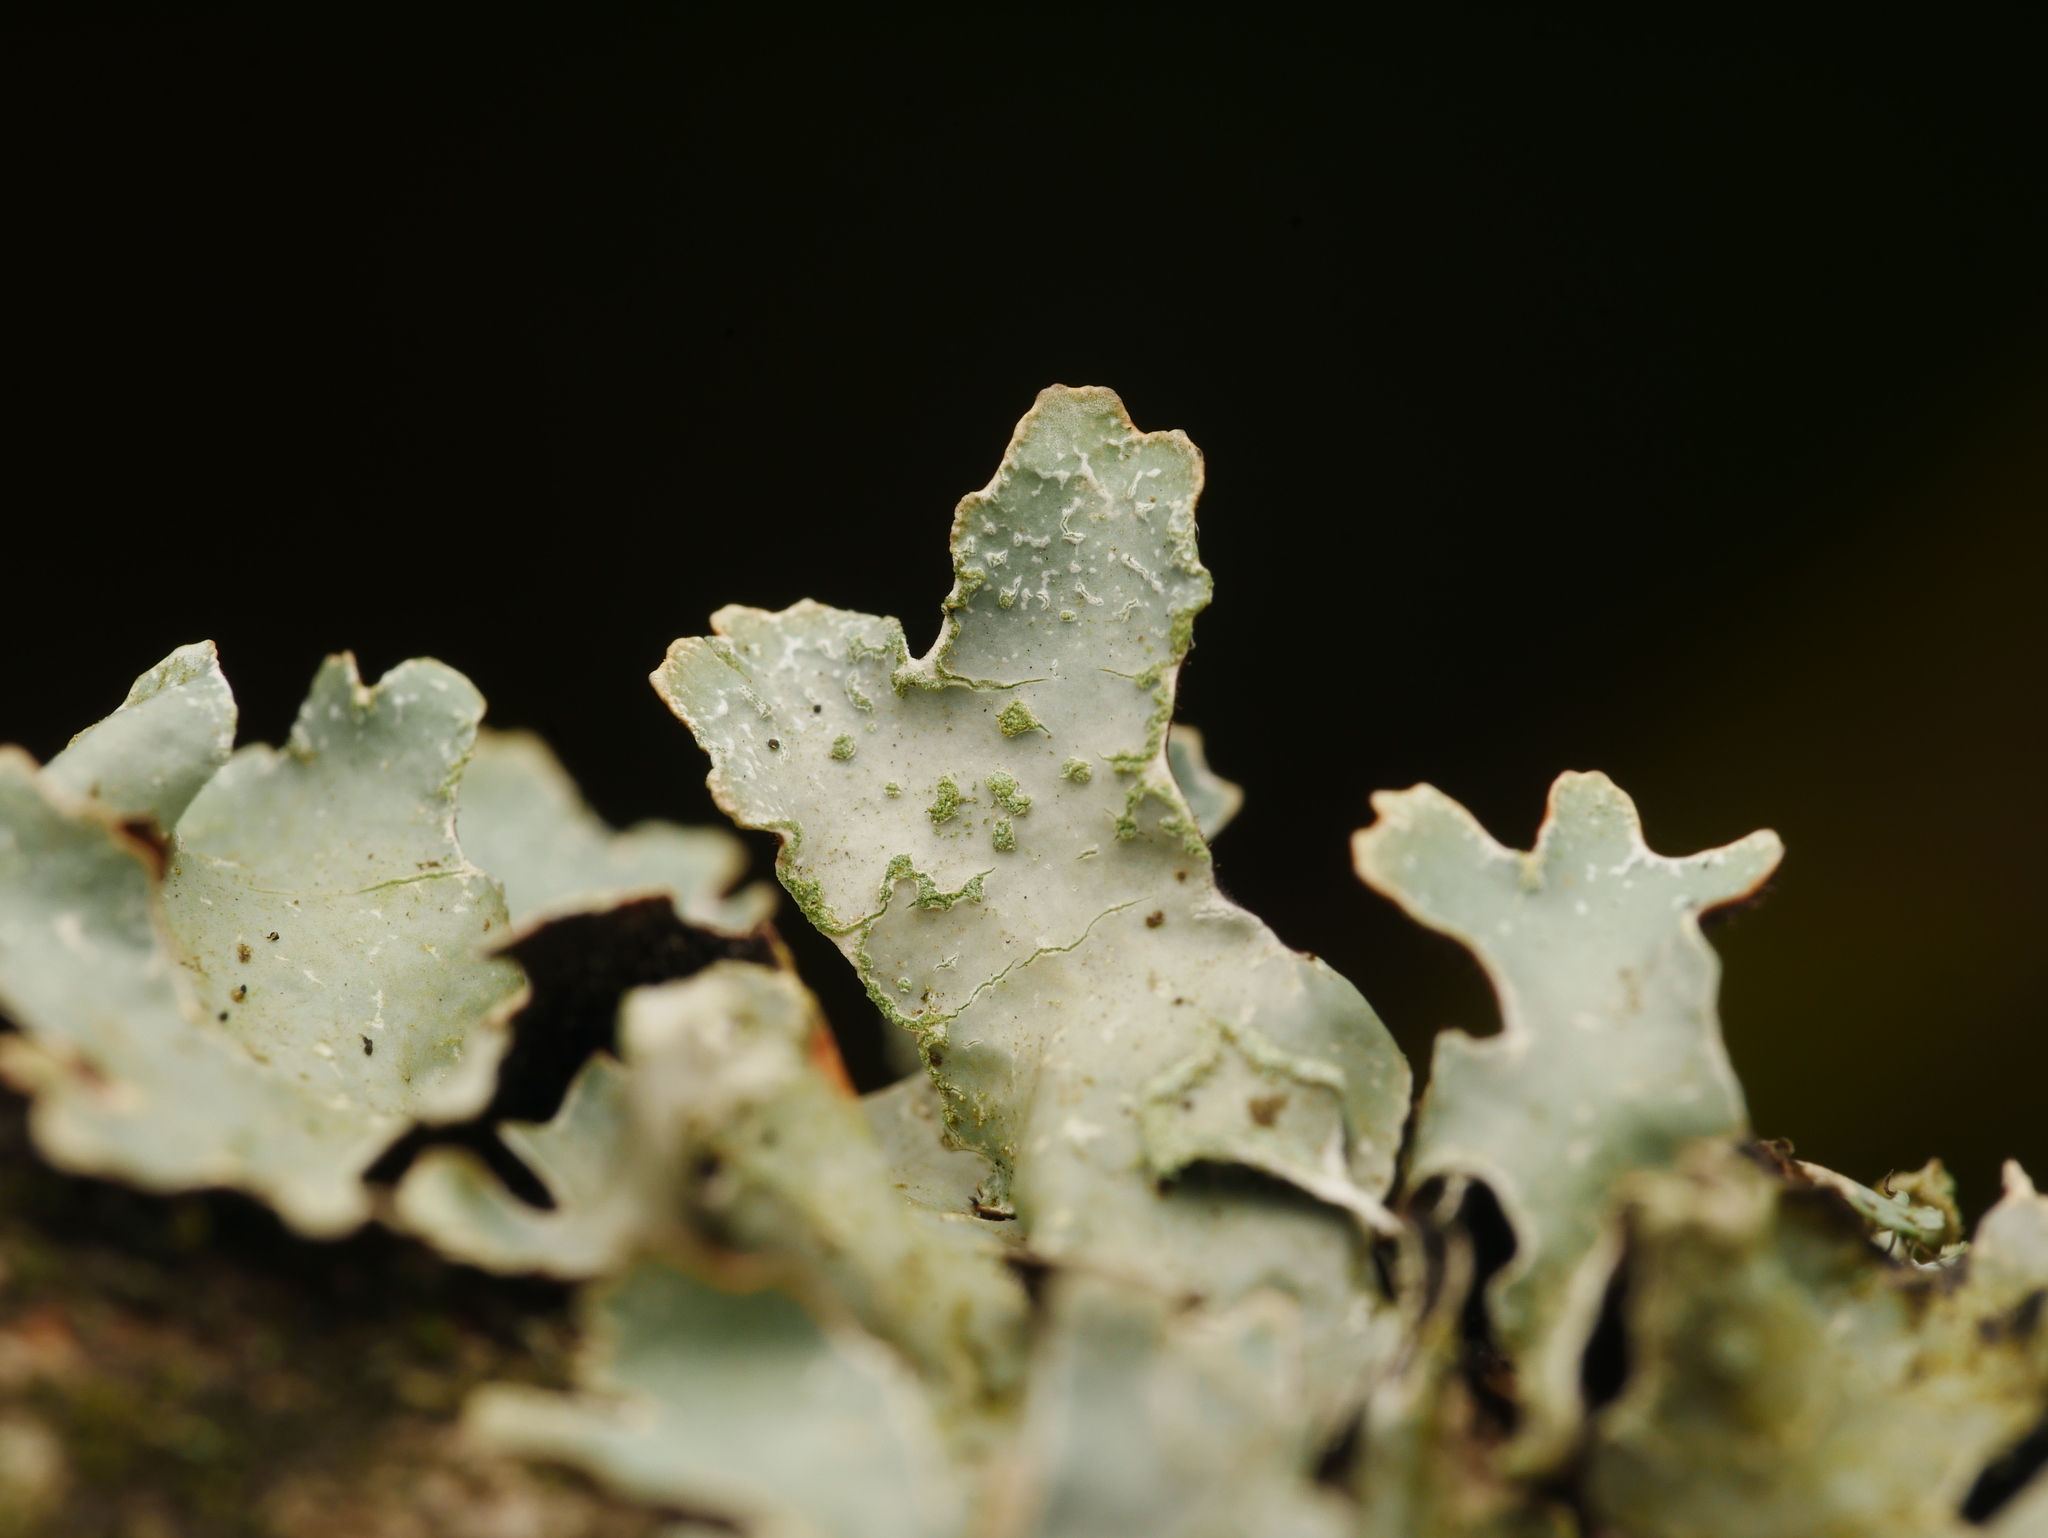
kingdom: Fungi
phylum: Ascomycota
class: Lecanoromycetes
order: Lecanorales
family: Parmeliaceae
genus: Parmelia
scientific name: Parmelia sulcata
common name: Netted shield lichen
